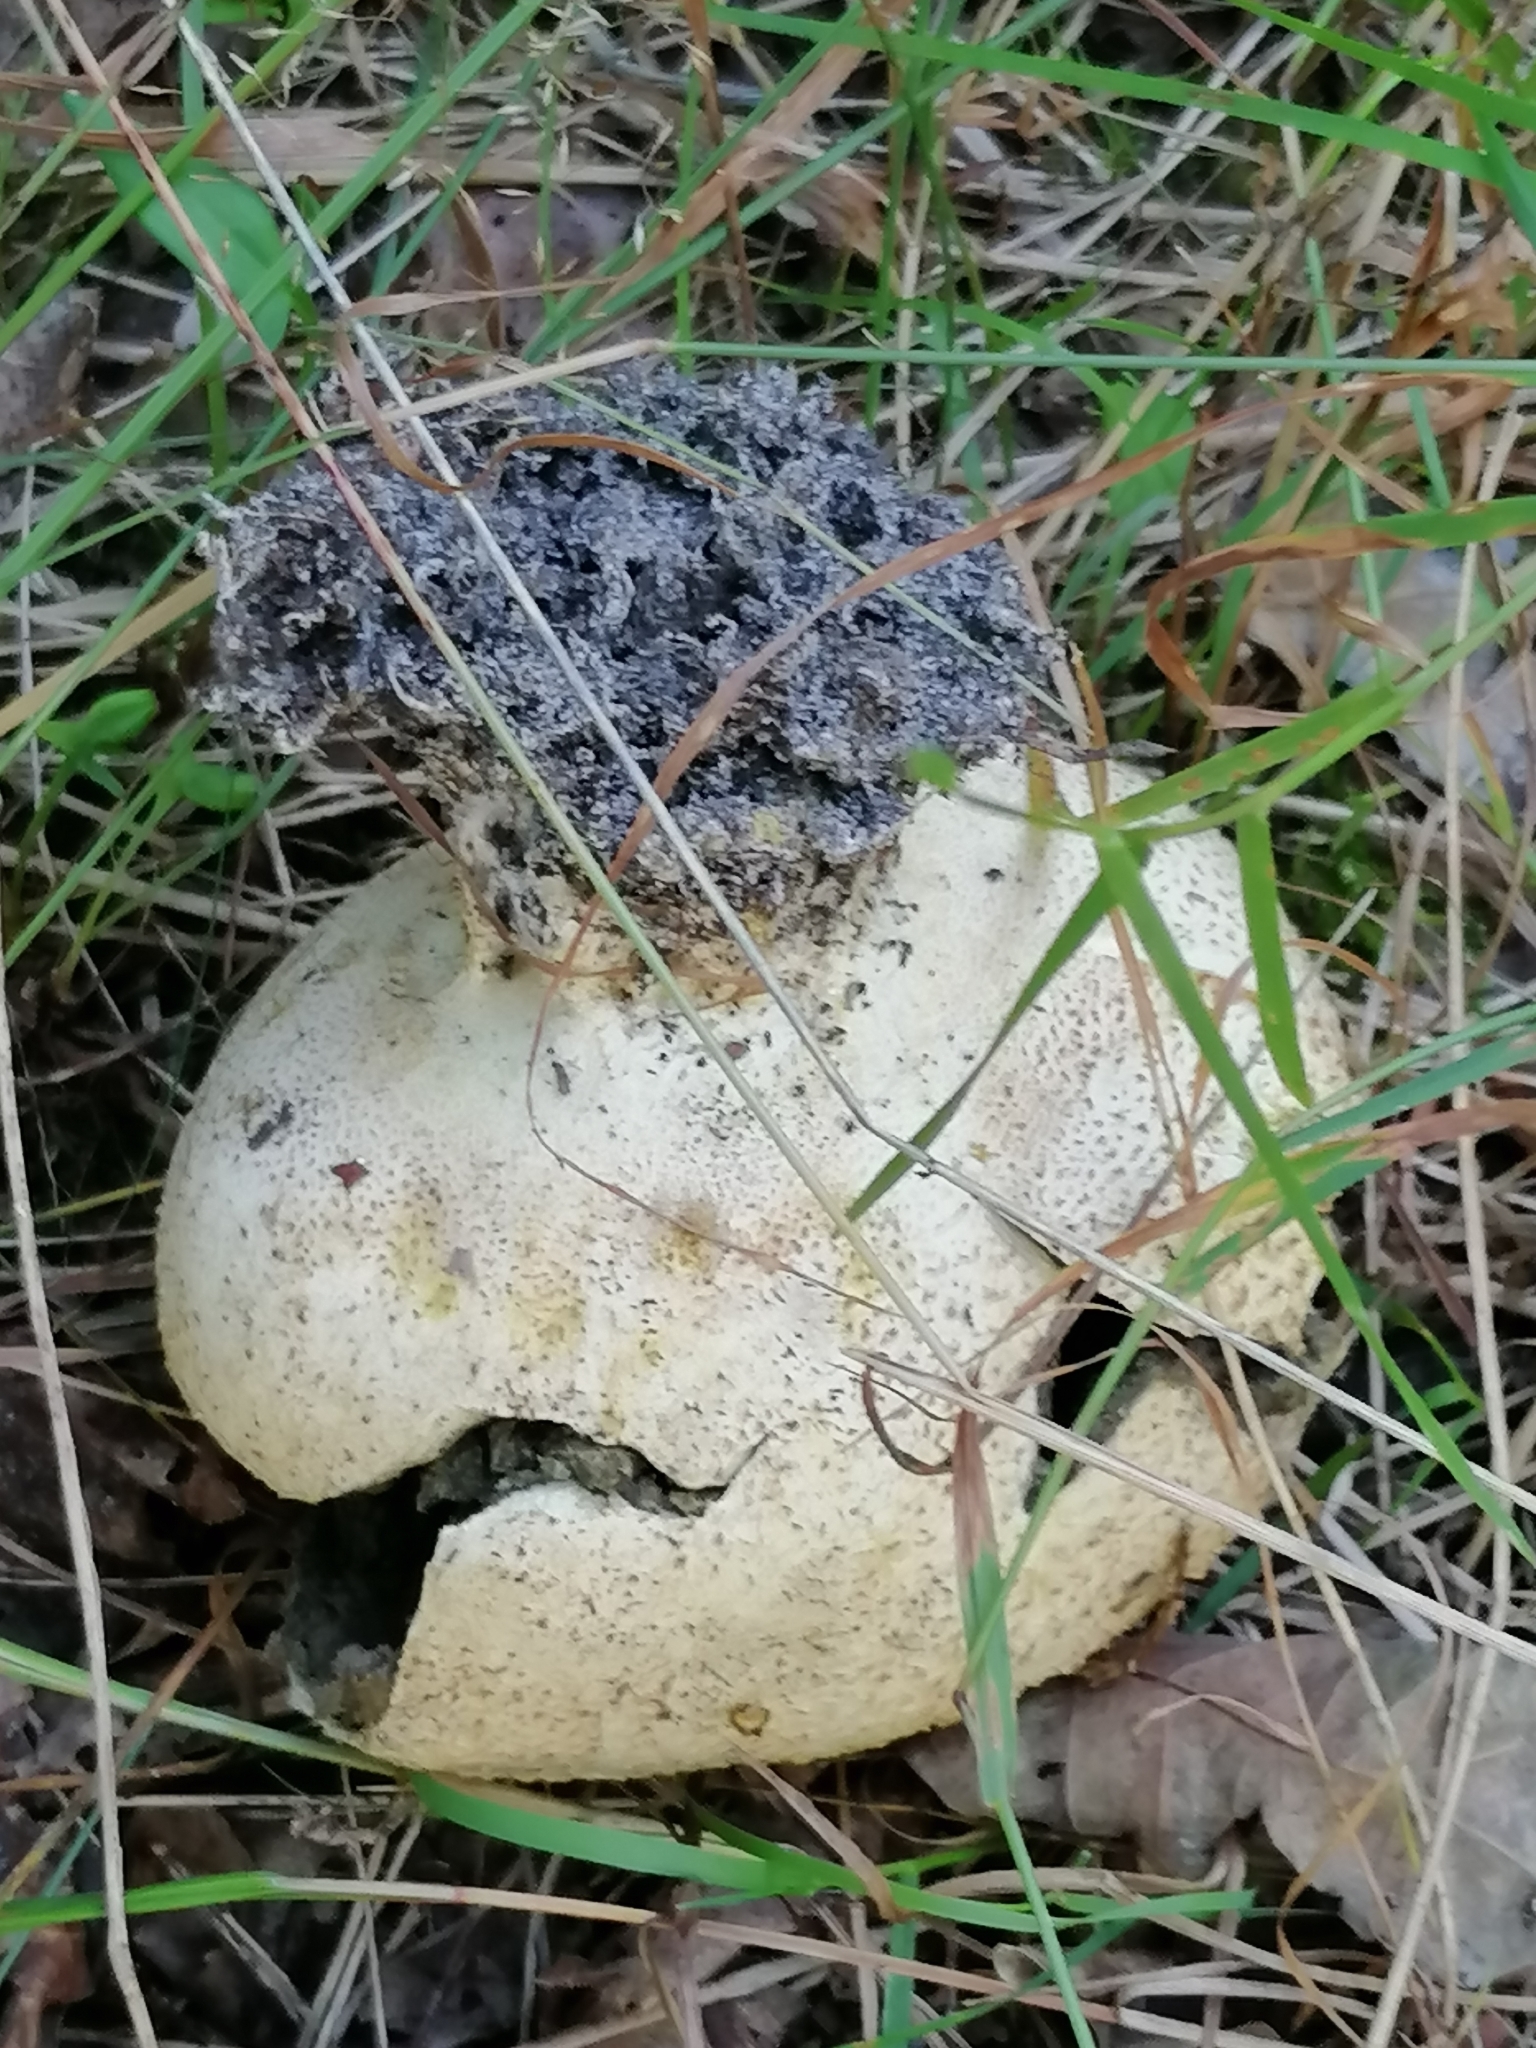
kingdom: Fungi
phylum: Basidiomycota
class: Agaricomycetes
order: Agaricales
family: Lycoperdaceae
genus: Lycoperdon
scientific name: Lycoperdon perlatum
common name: Common puffball
